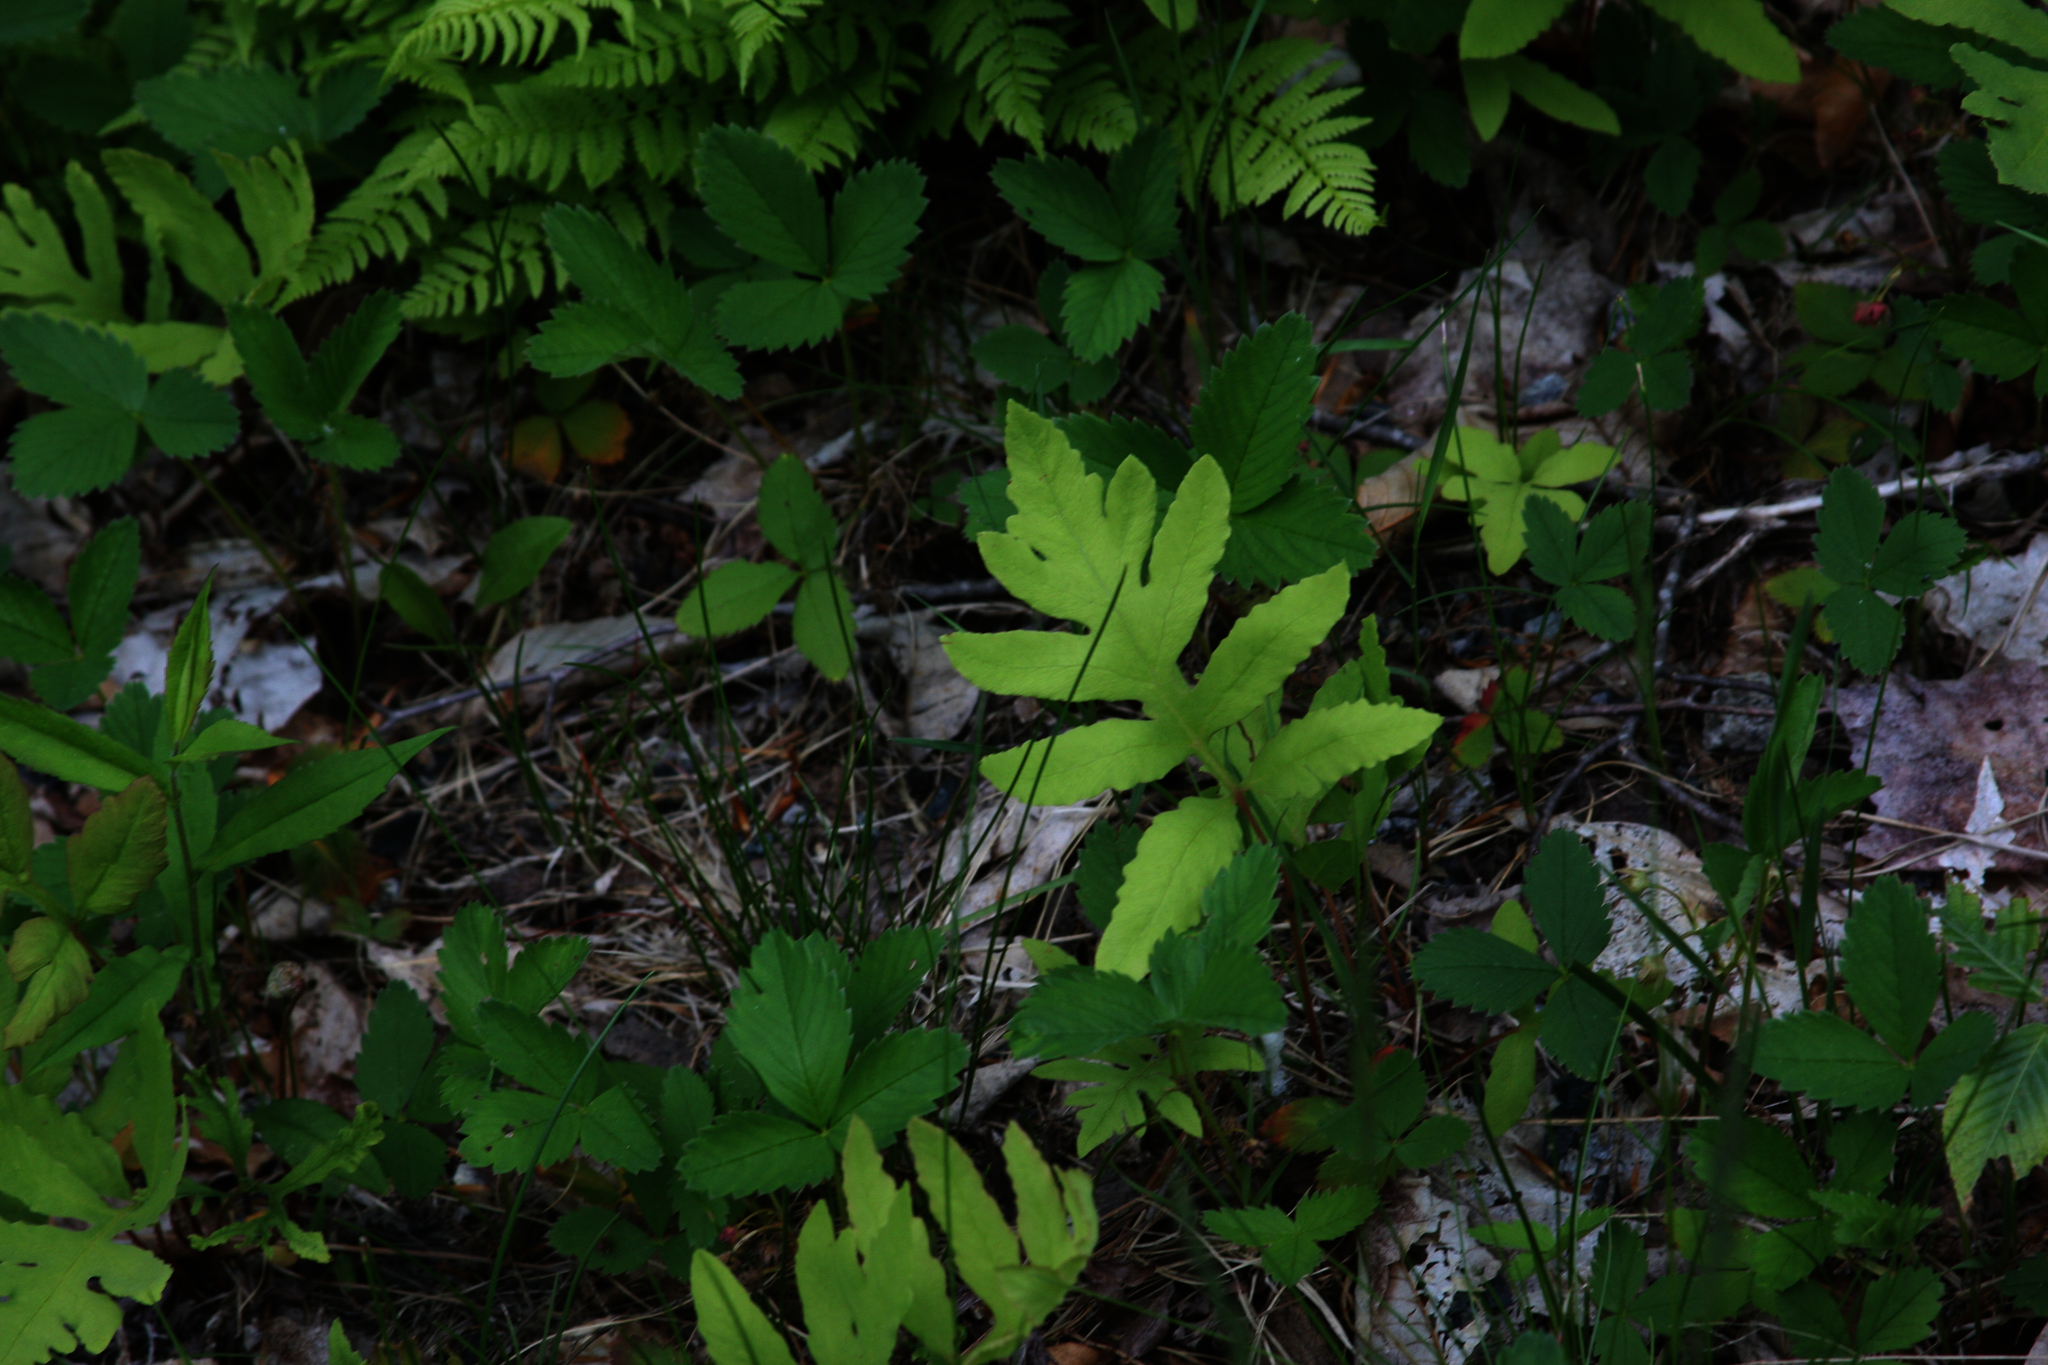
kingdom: Plantae
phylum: Tracheophyta
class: Polypodiopsida
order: Polypodiales
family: Onocleaceae
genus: Onoclea
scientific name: Onoclea sensibilis
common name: Sensitive fern
